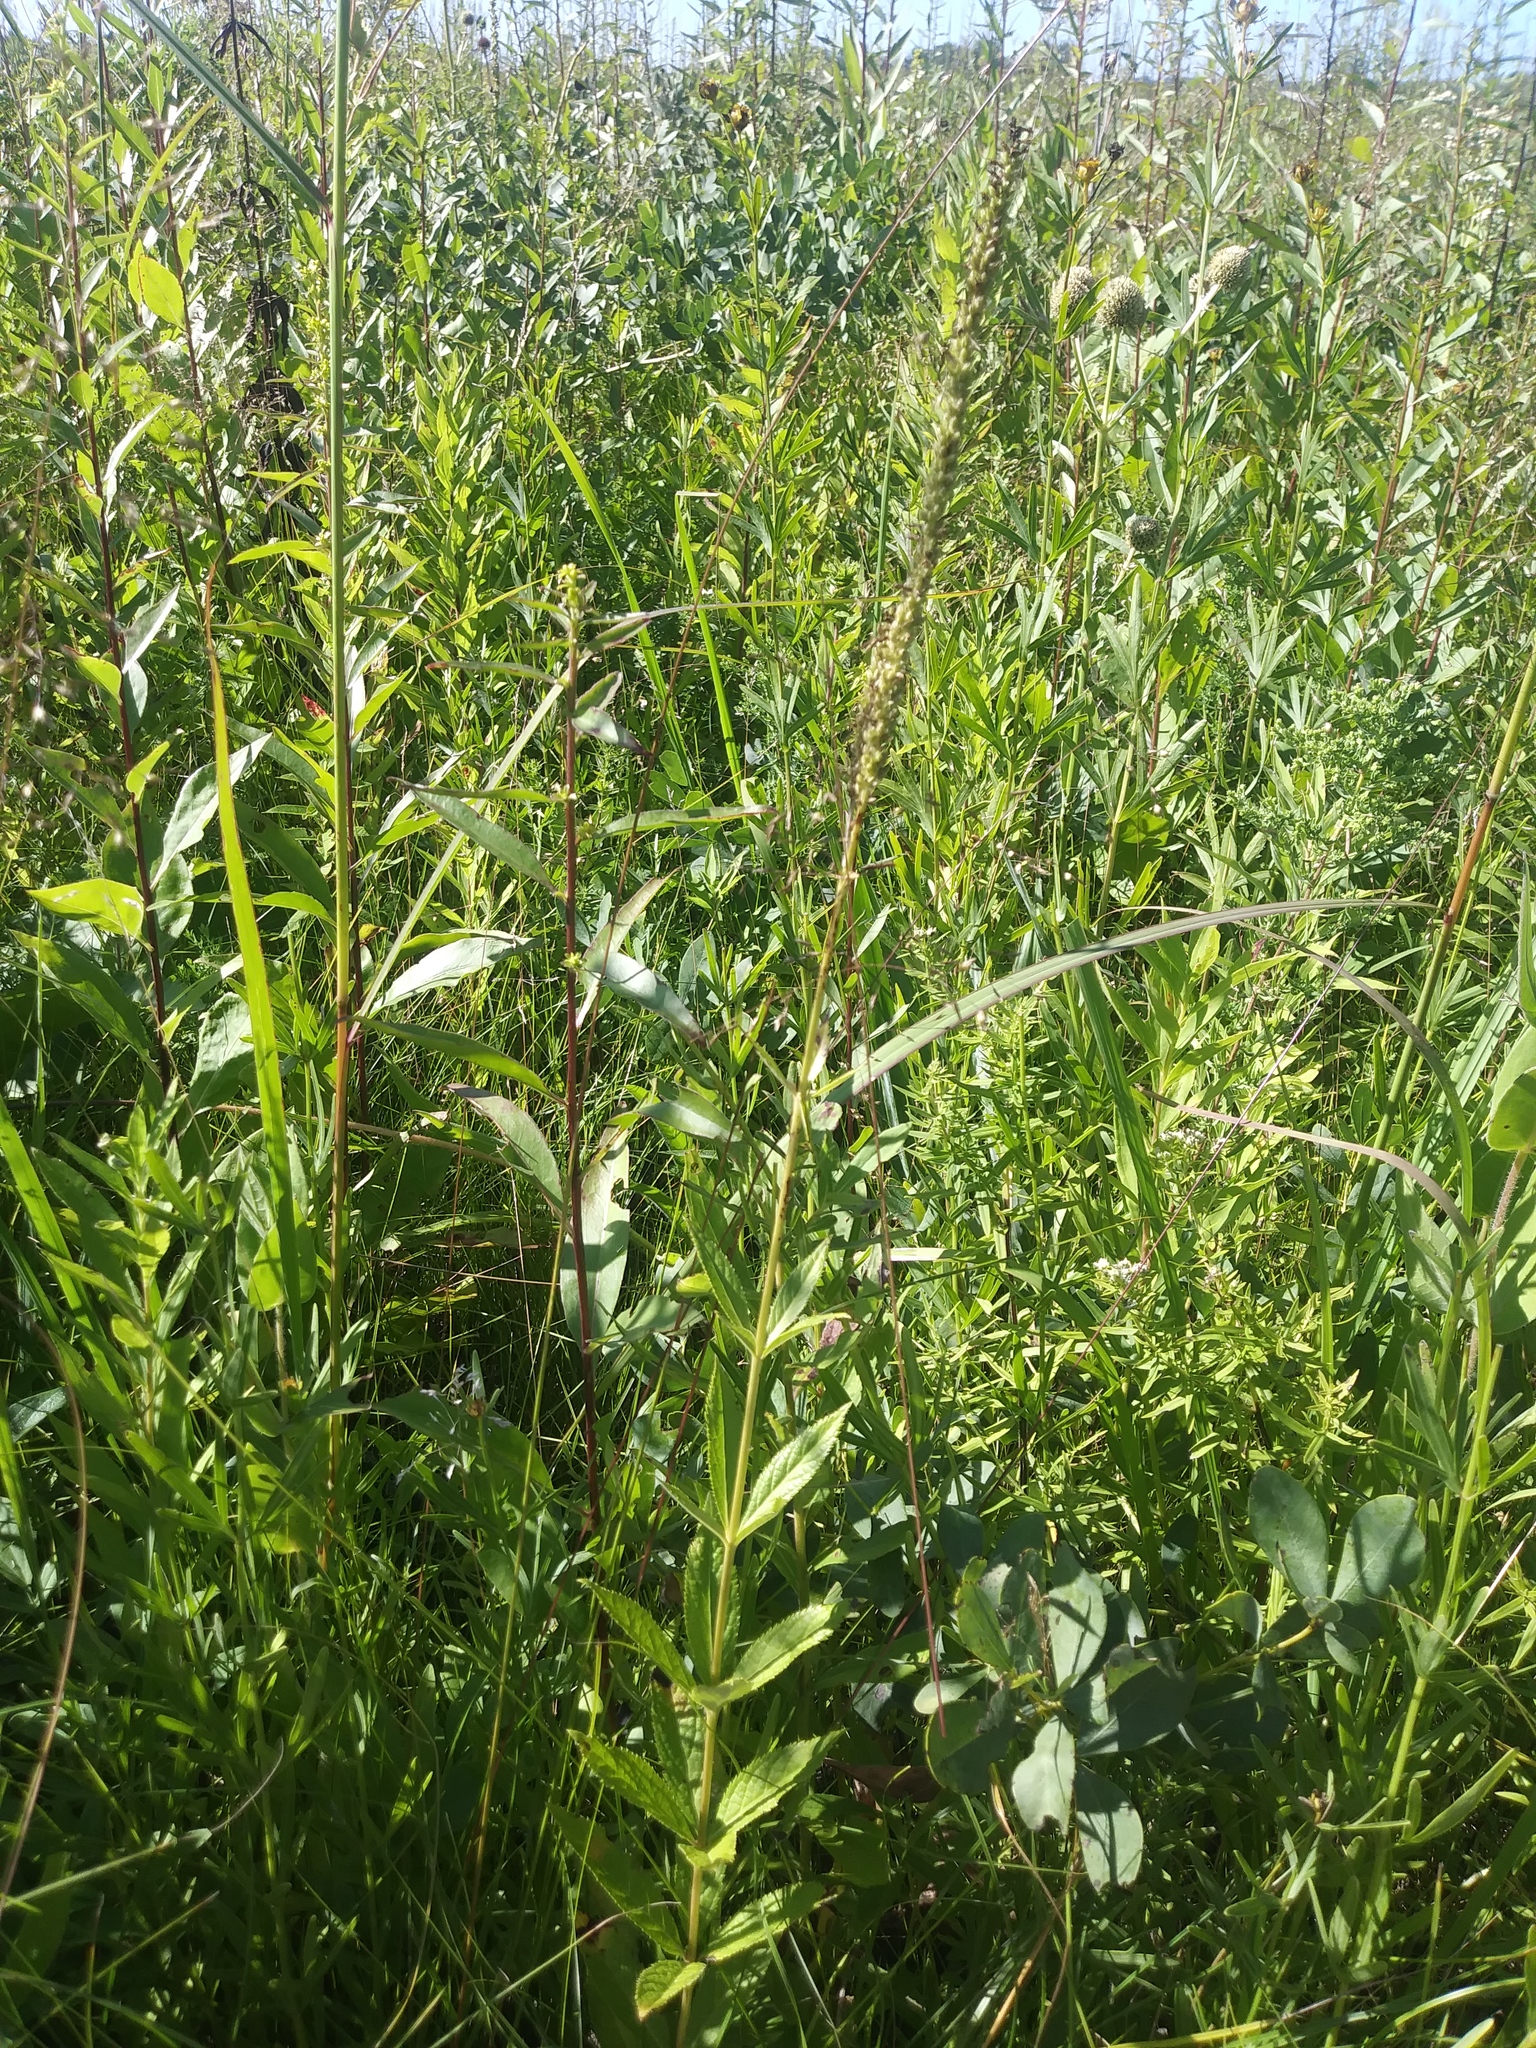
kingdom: Plantae
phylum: Tracheophyta
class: Magnoliopsida
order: Lamiales
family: Plantaginaceae
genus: Veronicastrum
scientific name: Veronicastrum virginicum
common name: Blackroot
